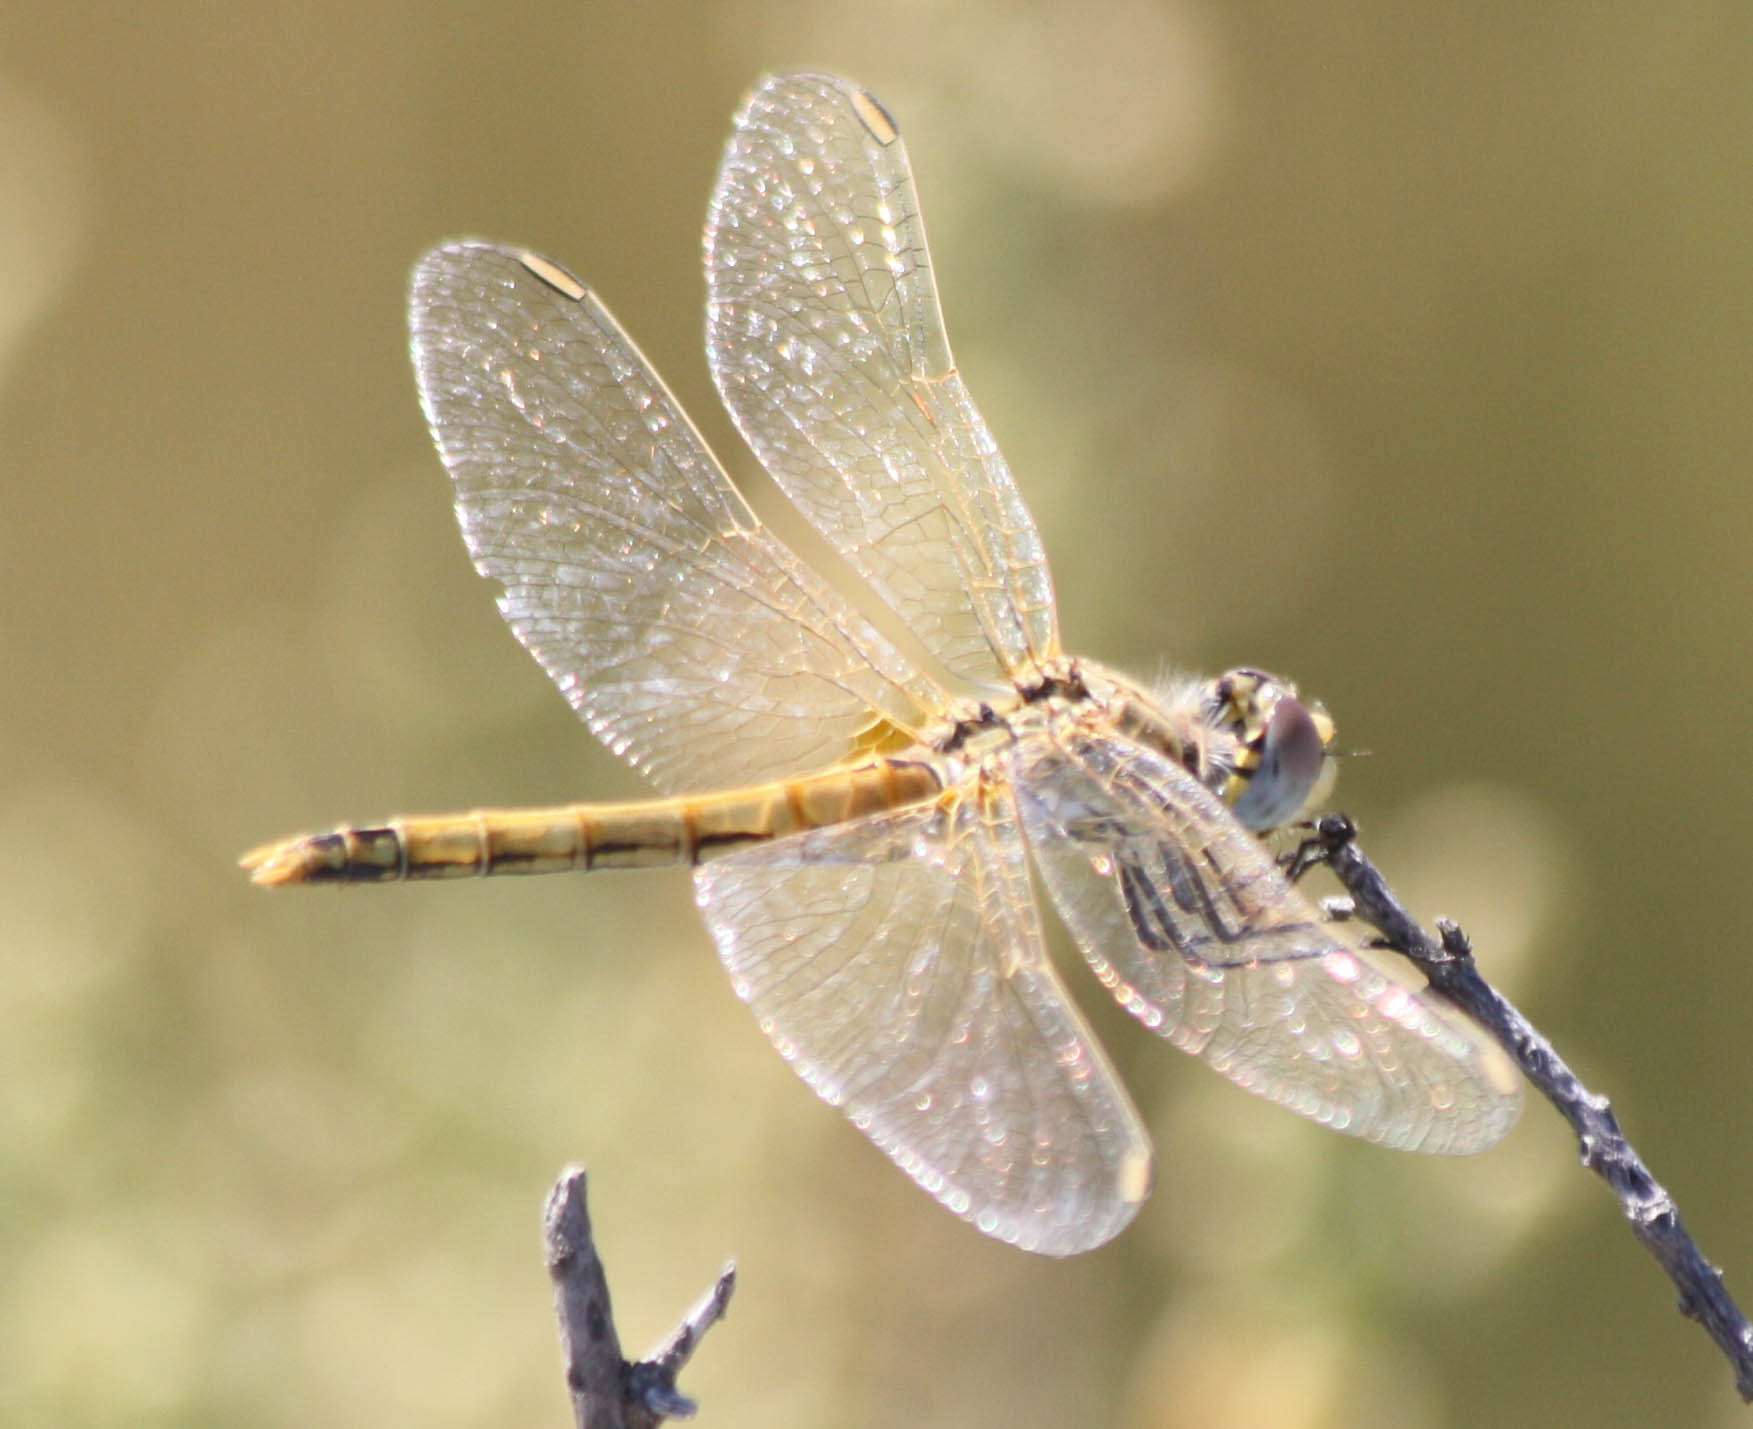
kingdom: Animalia
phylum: Arthropoda
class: Insecta
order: Odonata
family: Libellulidae
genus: Sympetrum
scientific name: Sympetrum fonscolombii
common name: Red-veined darter
